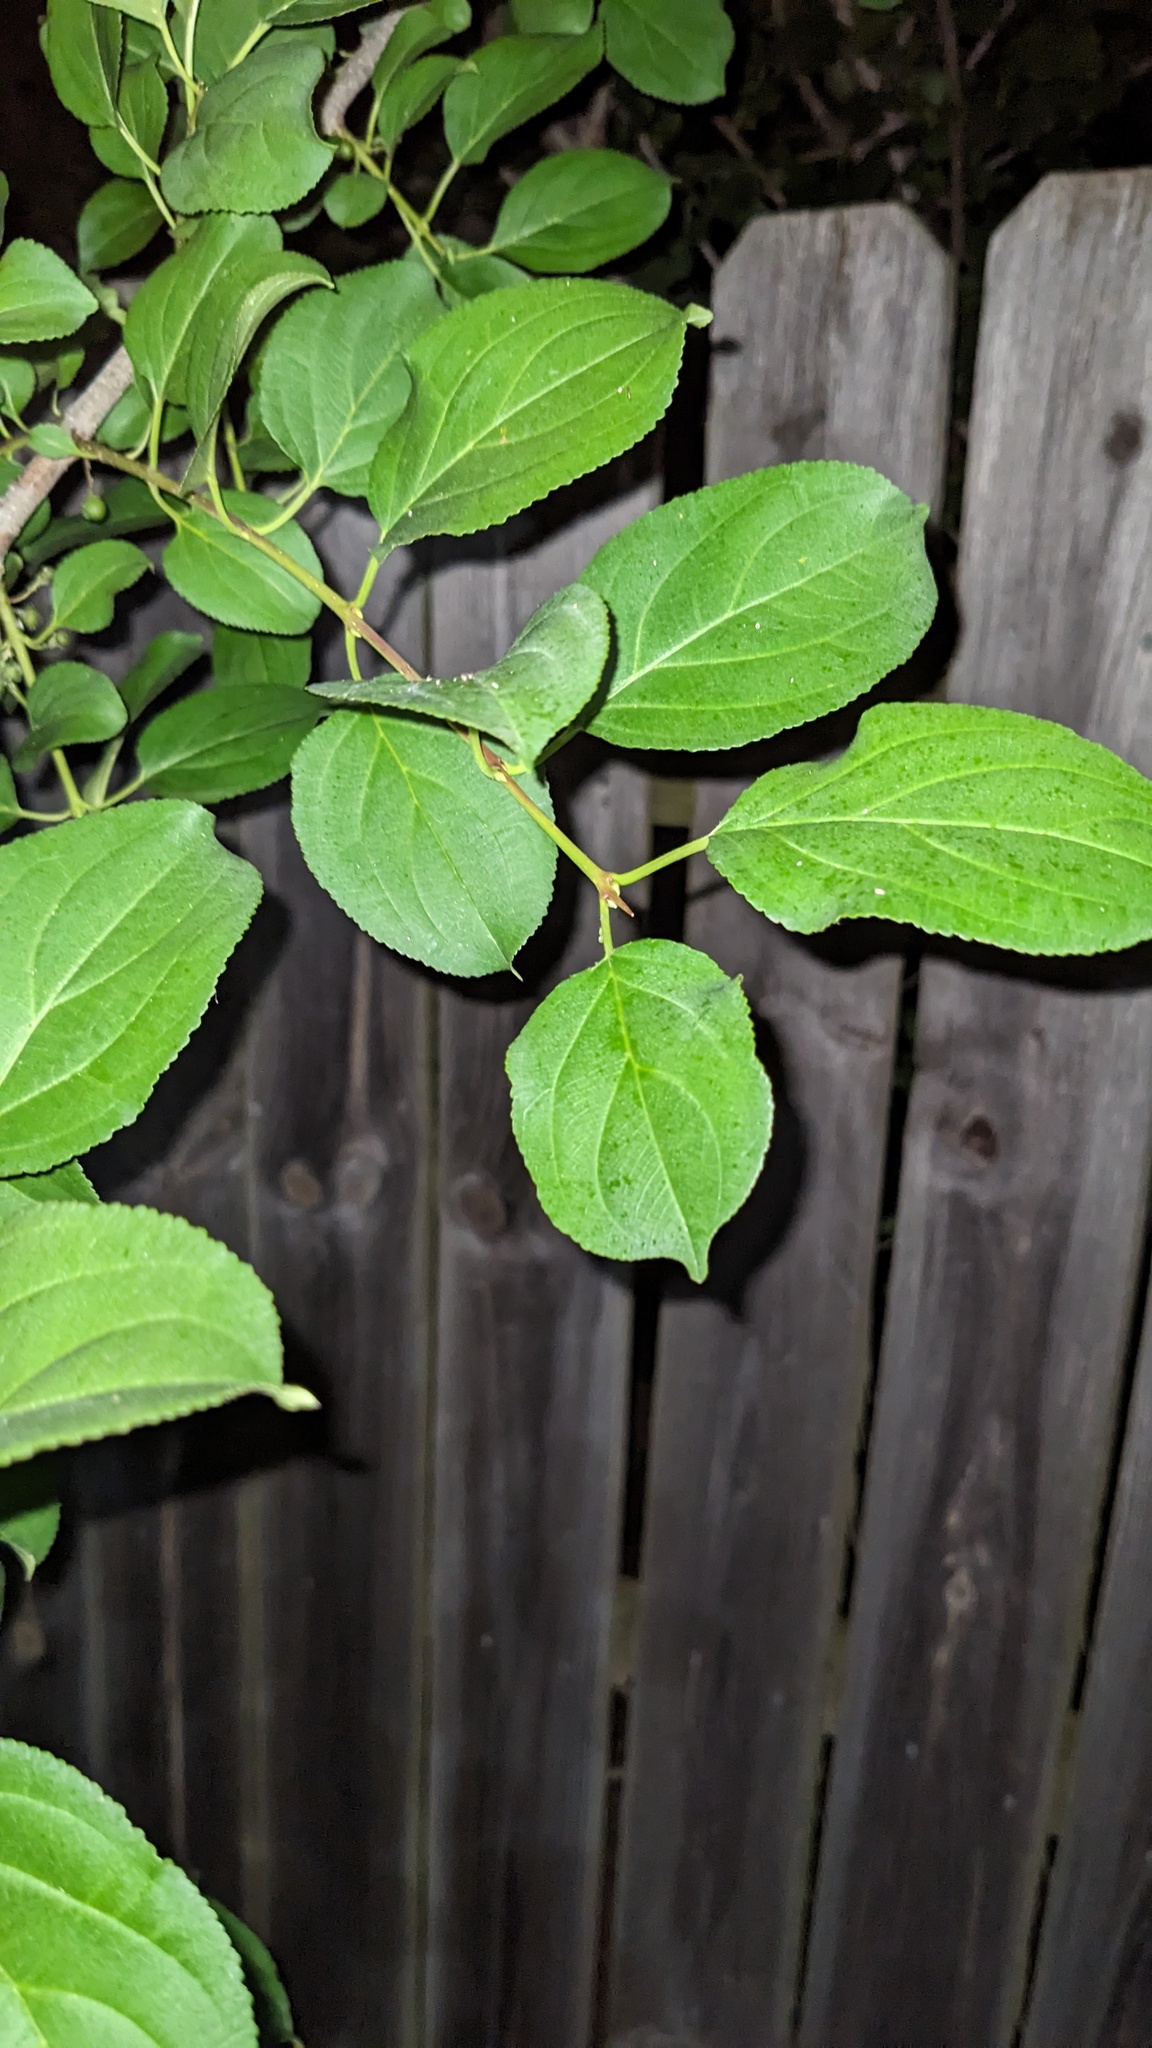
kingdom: Plantae
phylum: Tracheophyta
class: Magnoliopsida
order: Rosales
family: Rhamnaceae
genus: Rhamnus
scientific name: Rhamnus cathartica
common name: Common buckthorn
